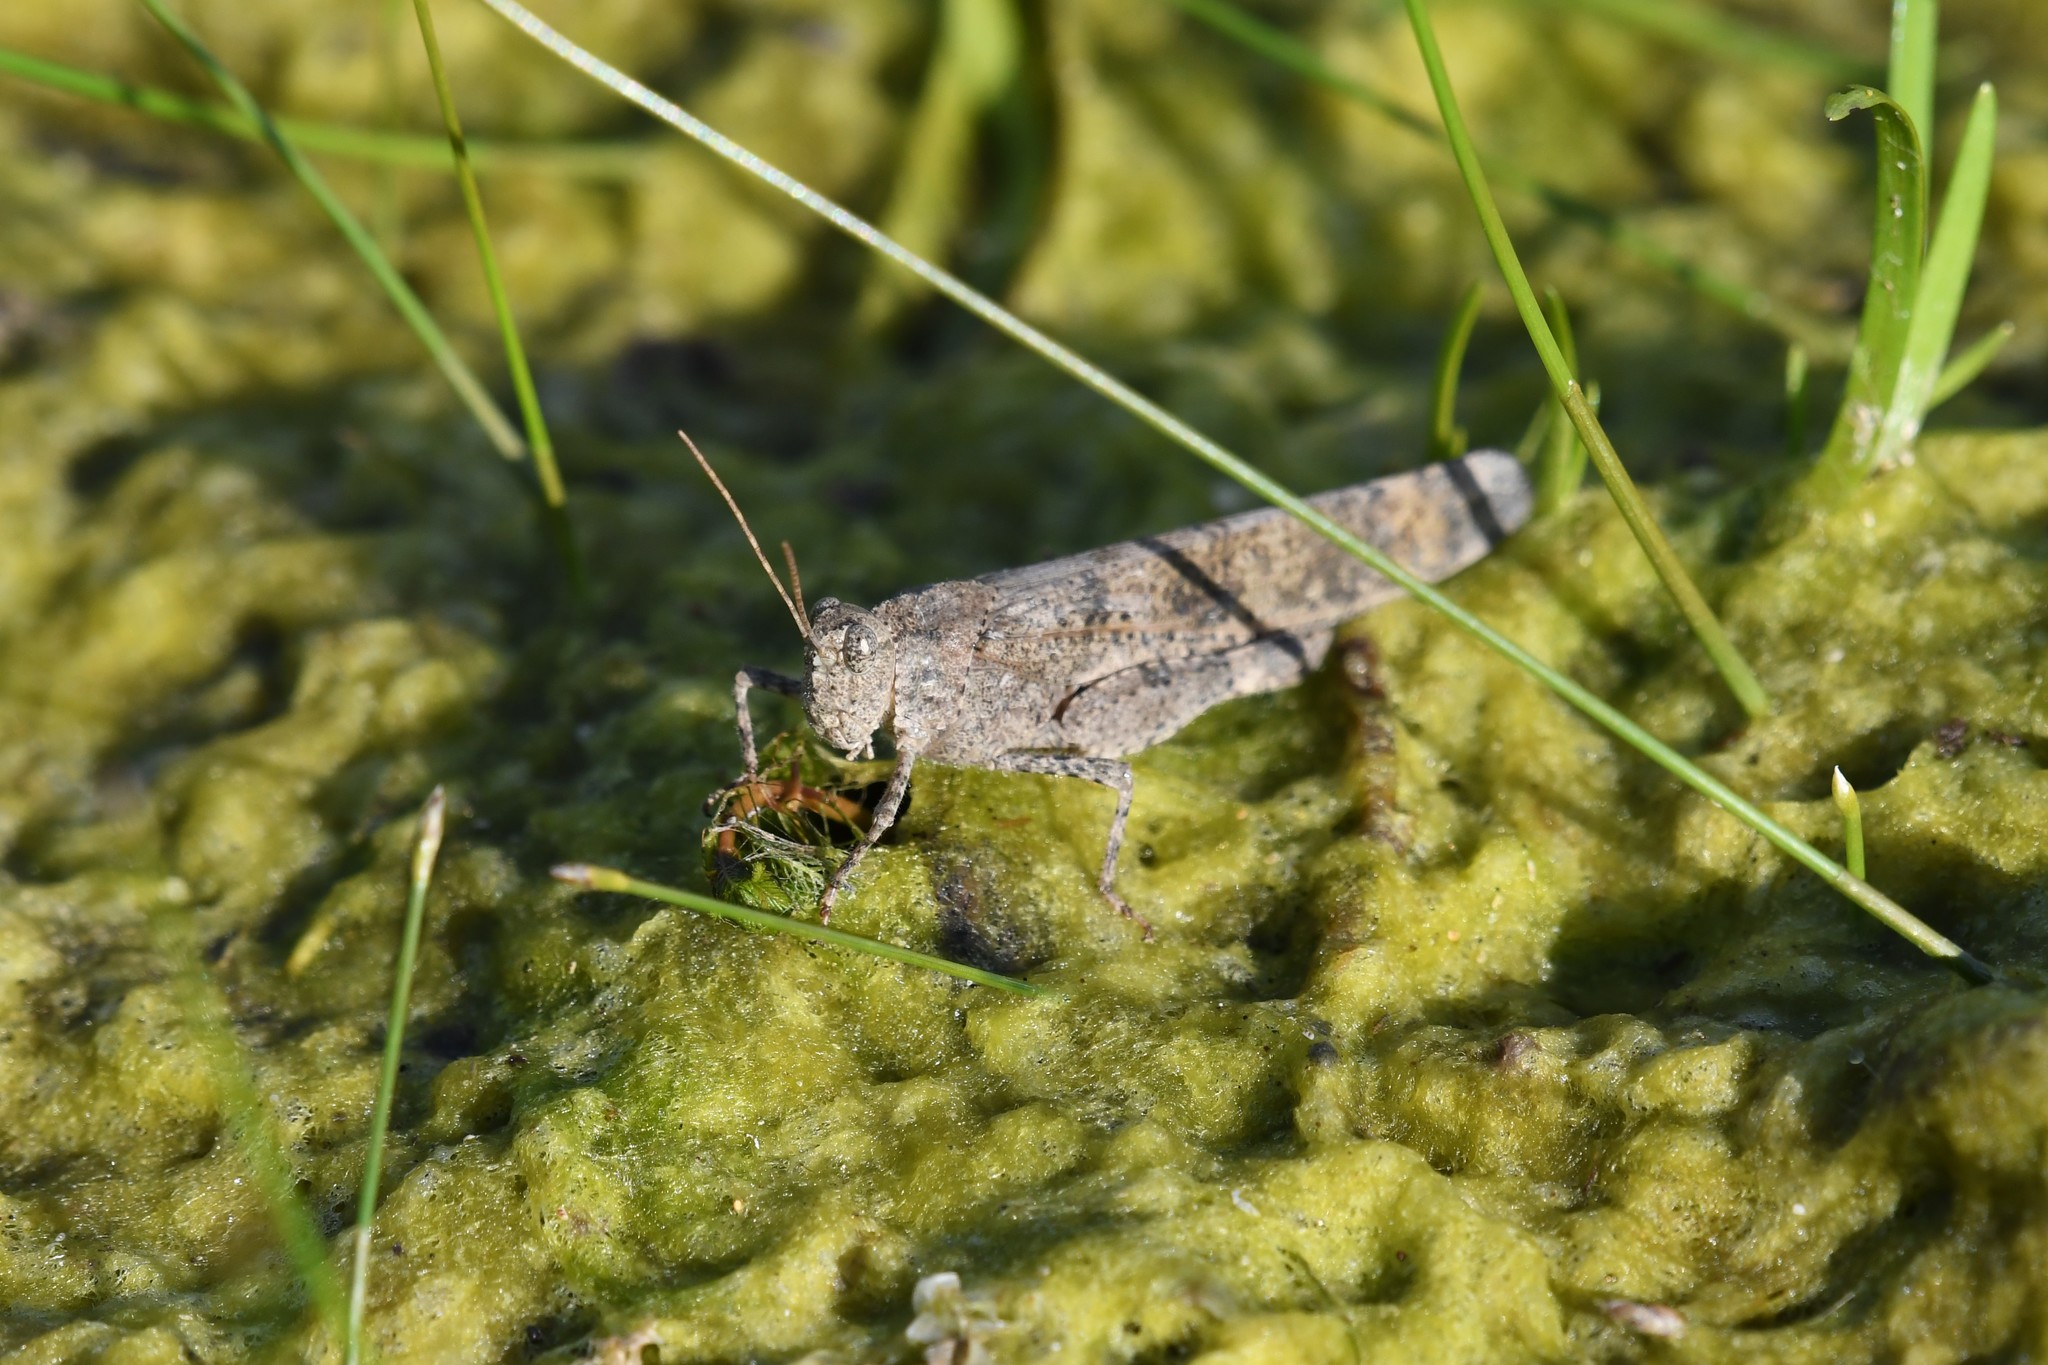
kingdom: Animalia
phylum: Arthropoda
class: Insecta
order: Orthoptera
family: Acrididae
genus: Dissosteira
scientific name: Dissosteira carolina
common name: Carolina grasshopper
